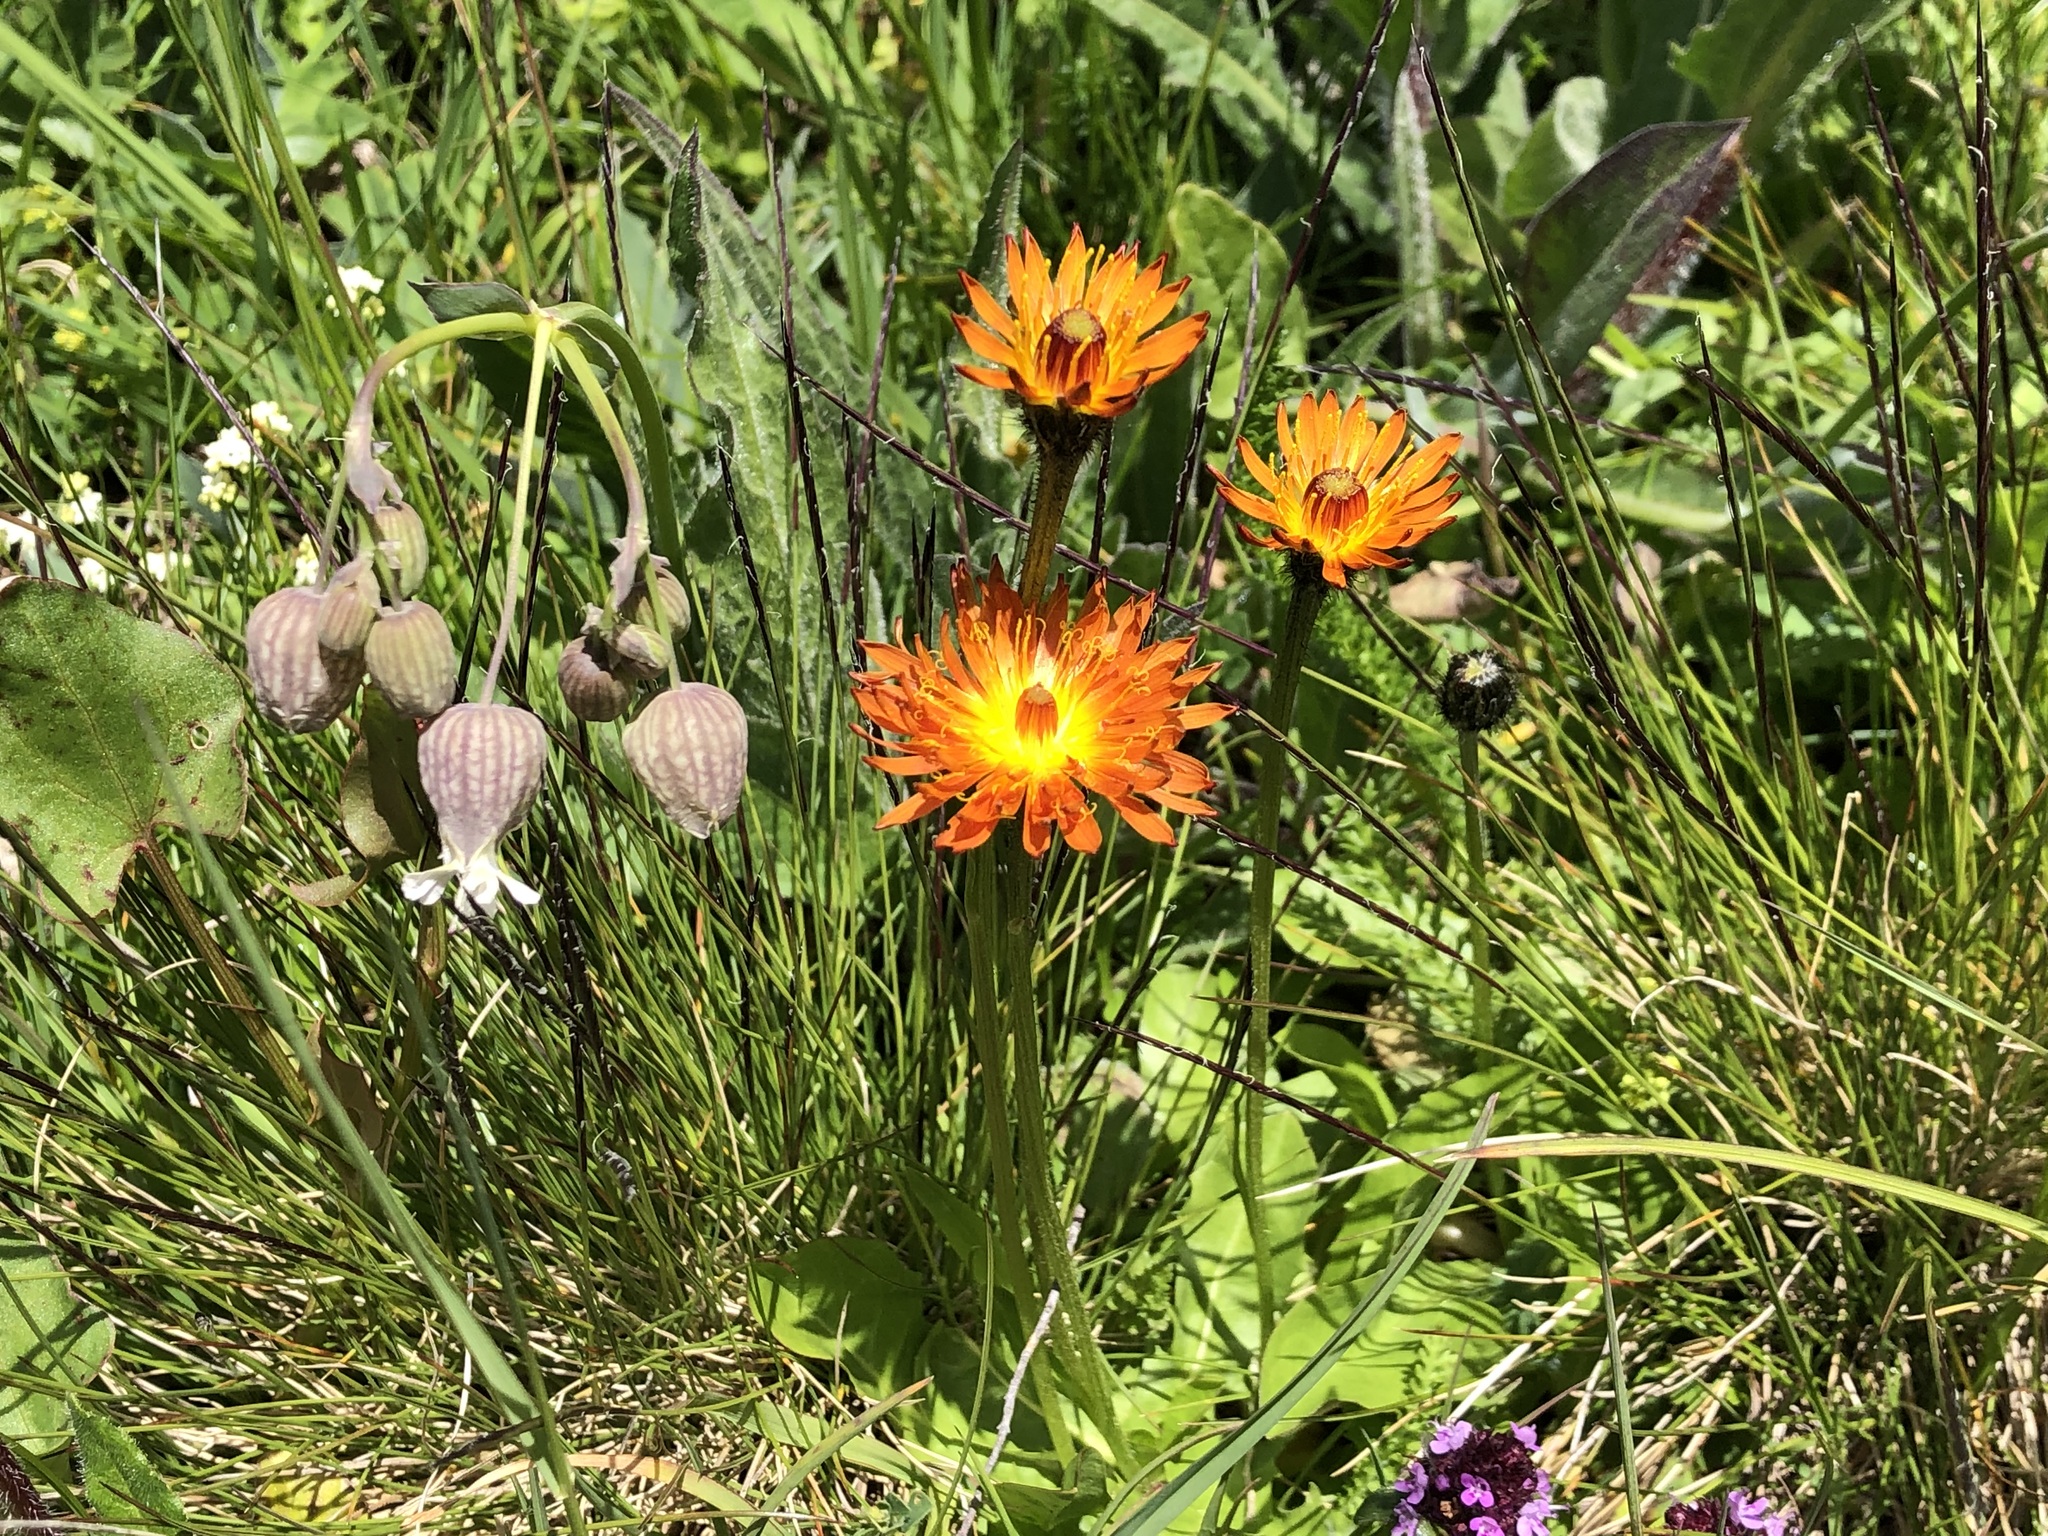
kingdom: Plantae
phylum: Tracheophyta
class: Magnoliopsida
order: Asterales
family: Asteraceae
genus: Crepis
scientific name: Crepis aurea
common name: Golden hawk's-beard
